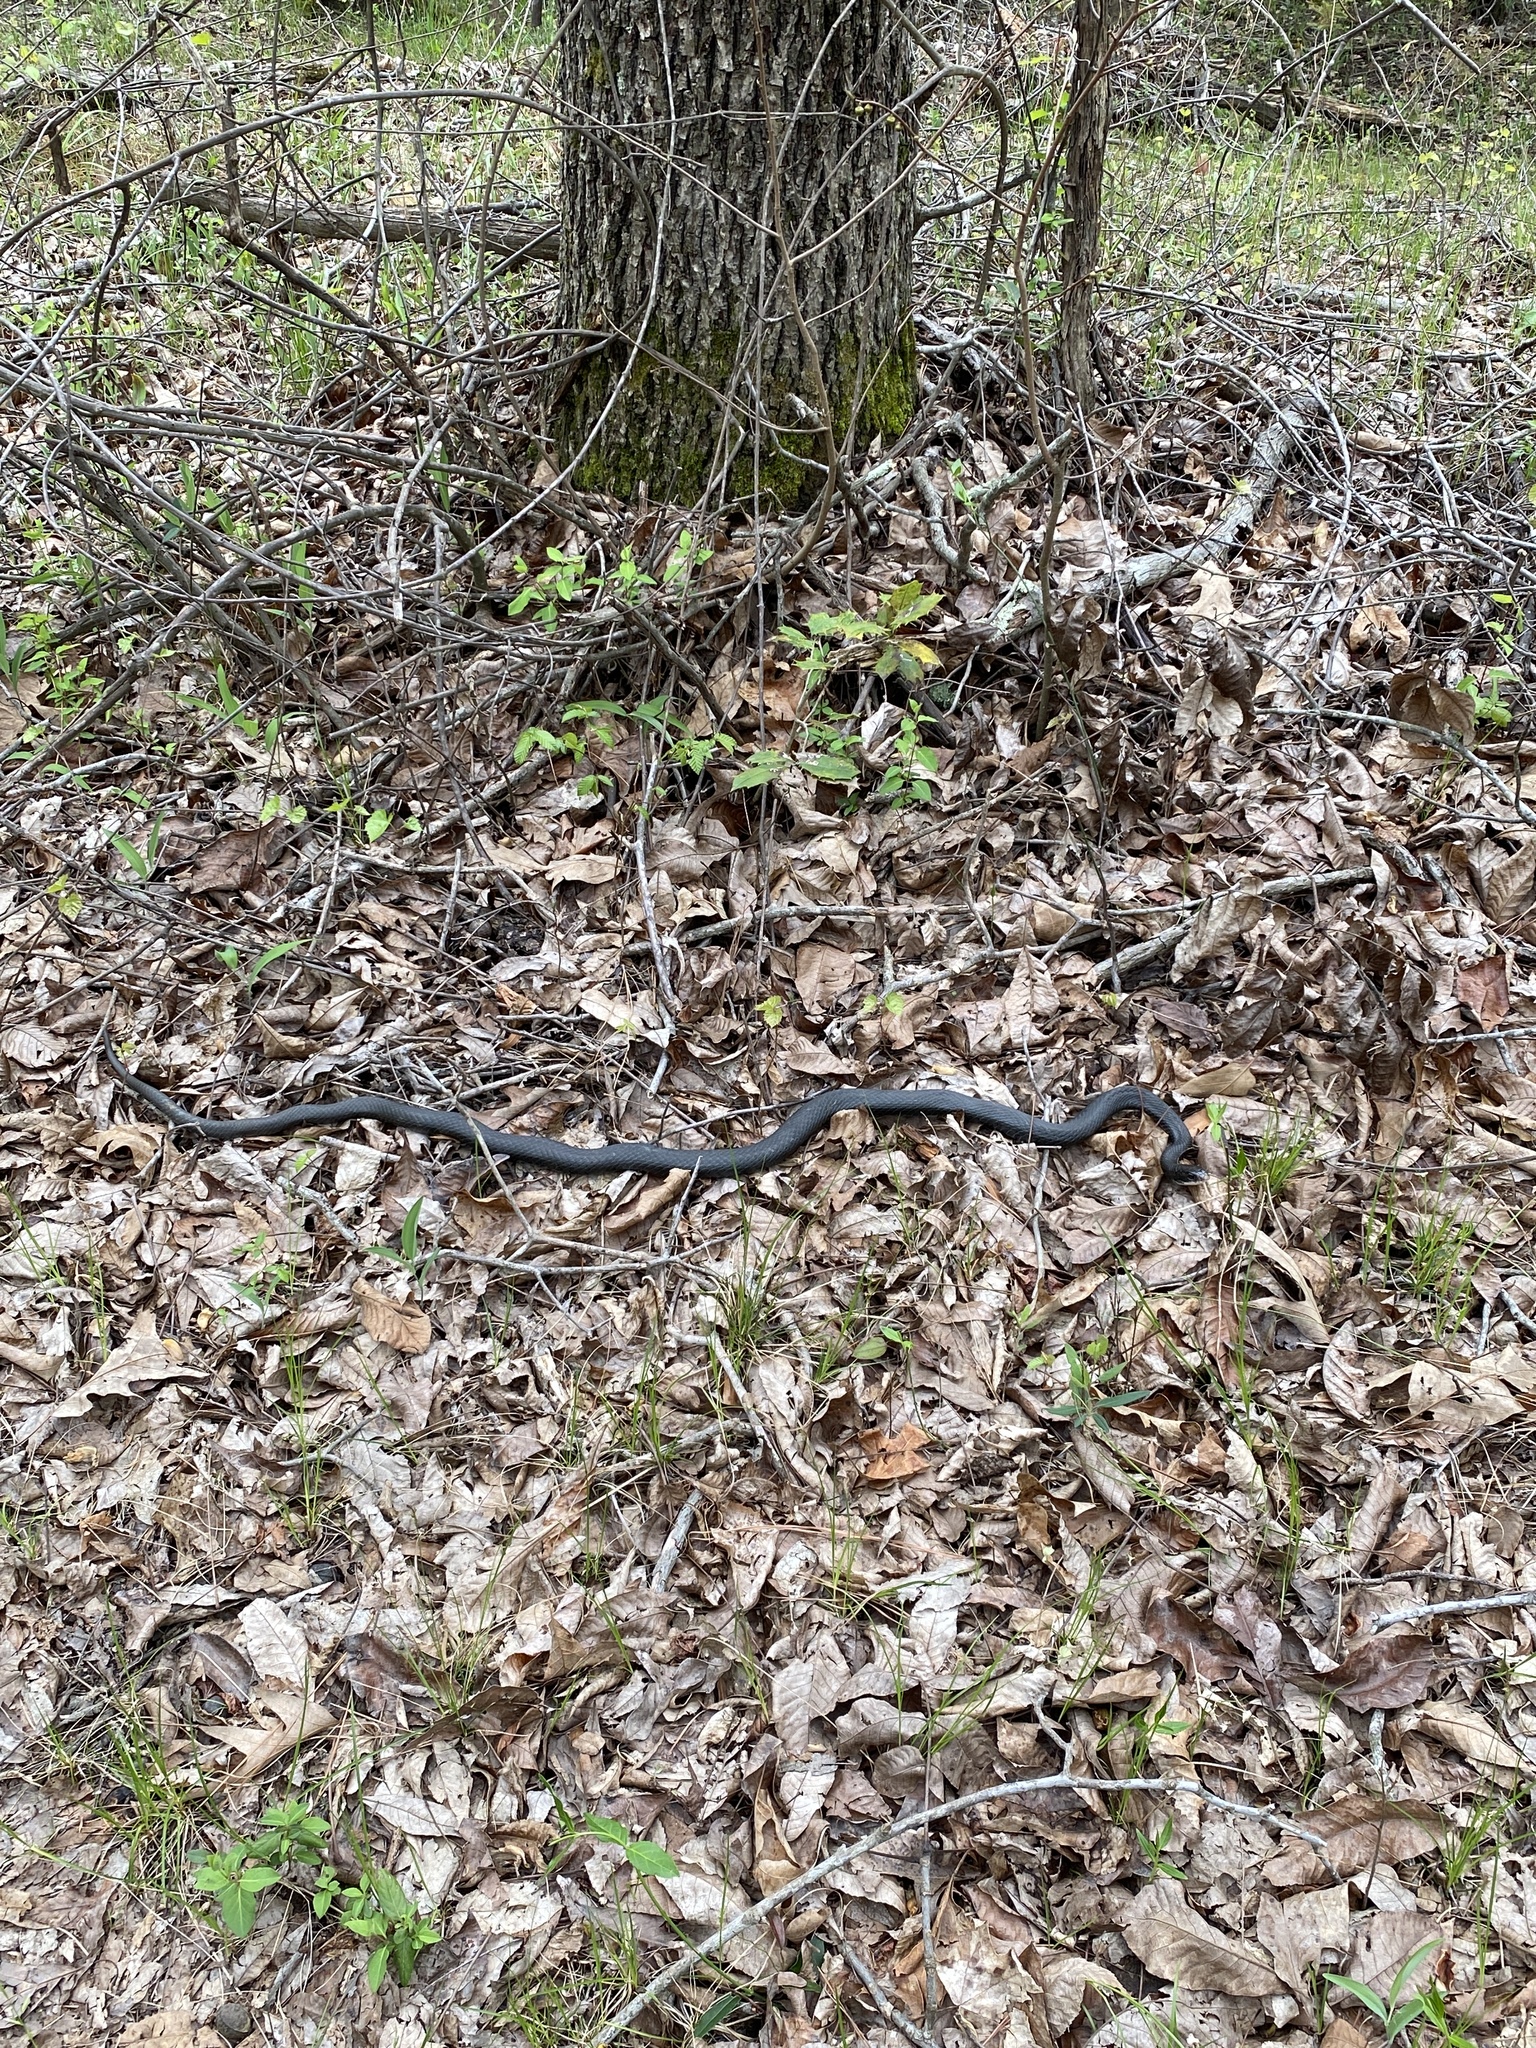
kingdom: Animalia
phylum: Chordata
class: Squamata
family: Colubridae
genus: Coluber
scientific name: Coluber constrictor
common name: Eastern racer
